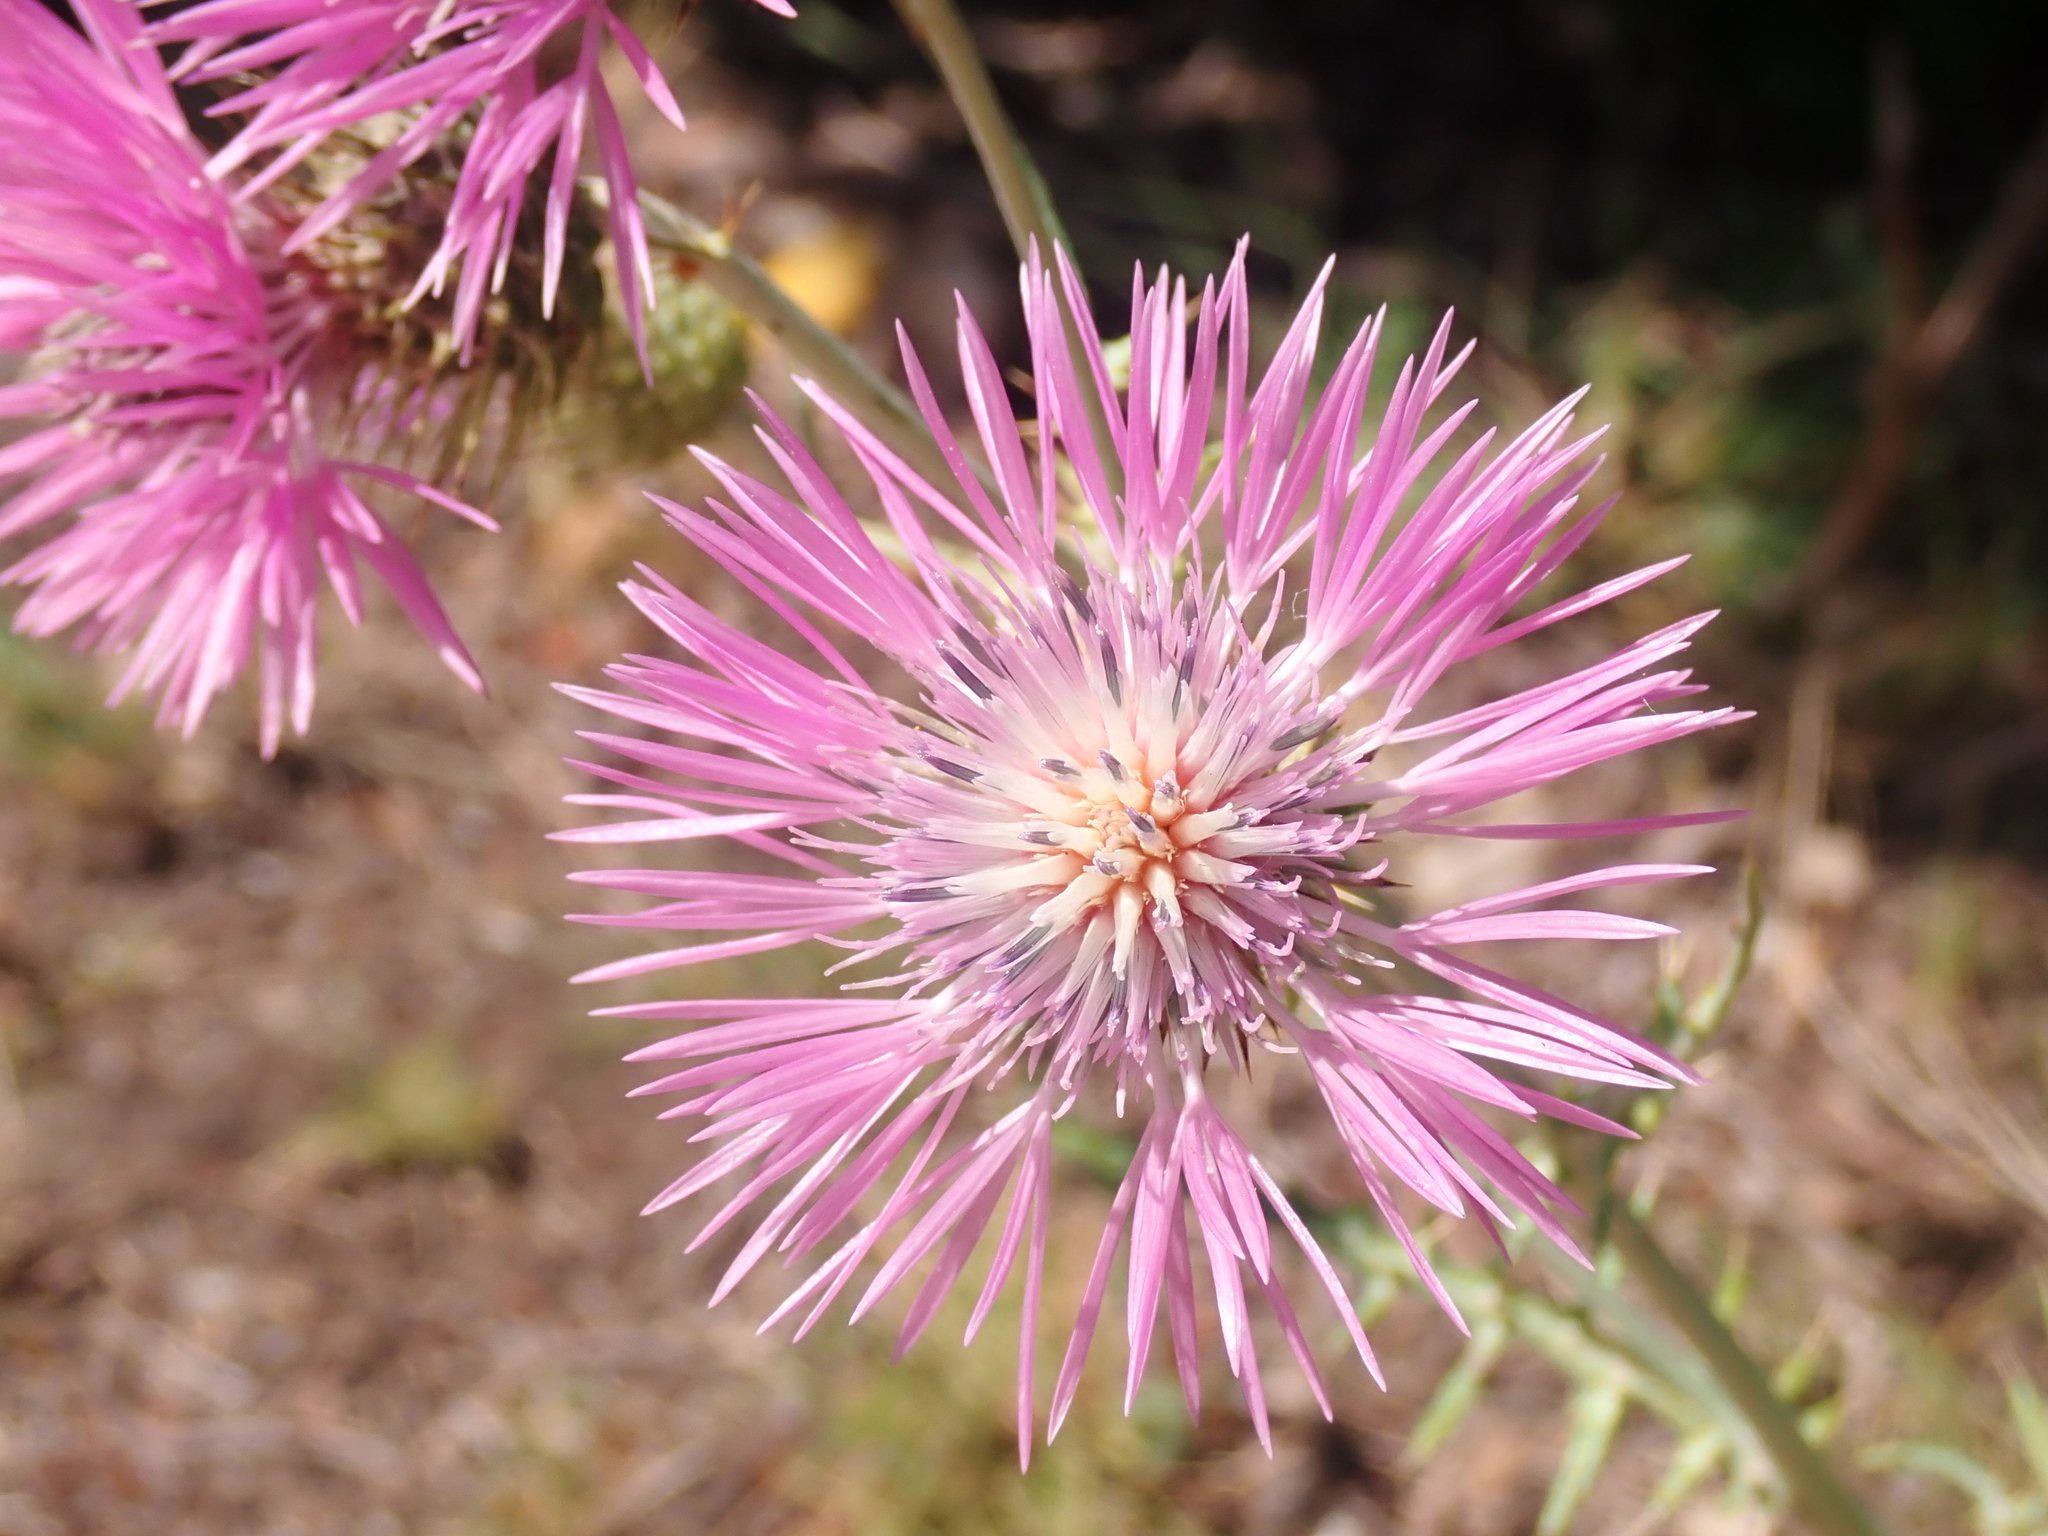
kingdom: Plantae
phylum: Tracheophyta
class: Magnoliopsida
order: Asterales
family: Asteraceae
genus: Galactites
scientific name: Galactites tomentosa
